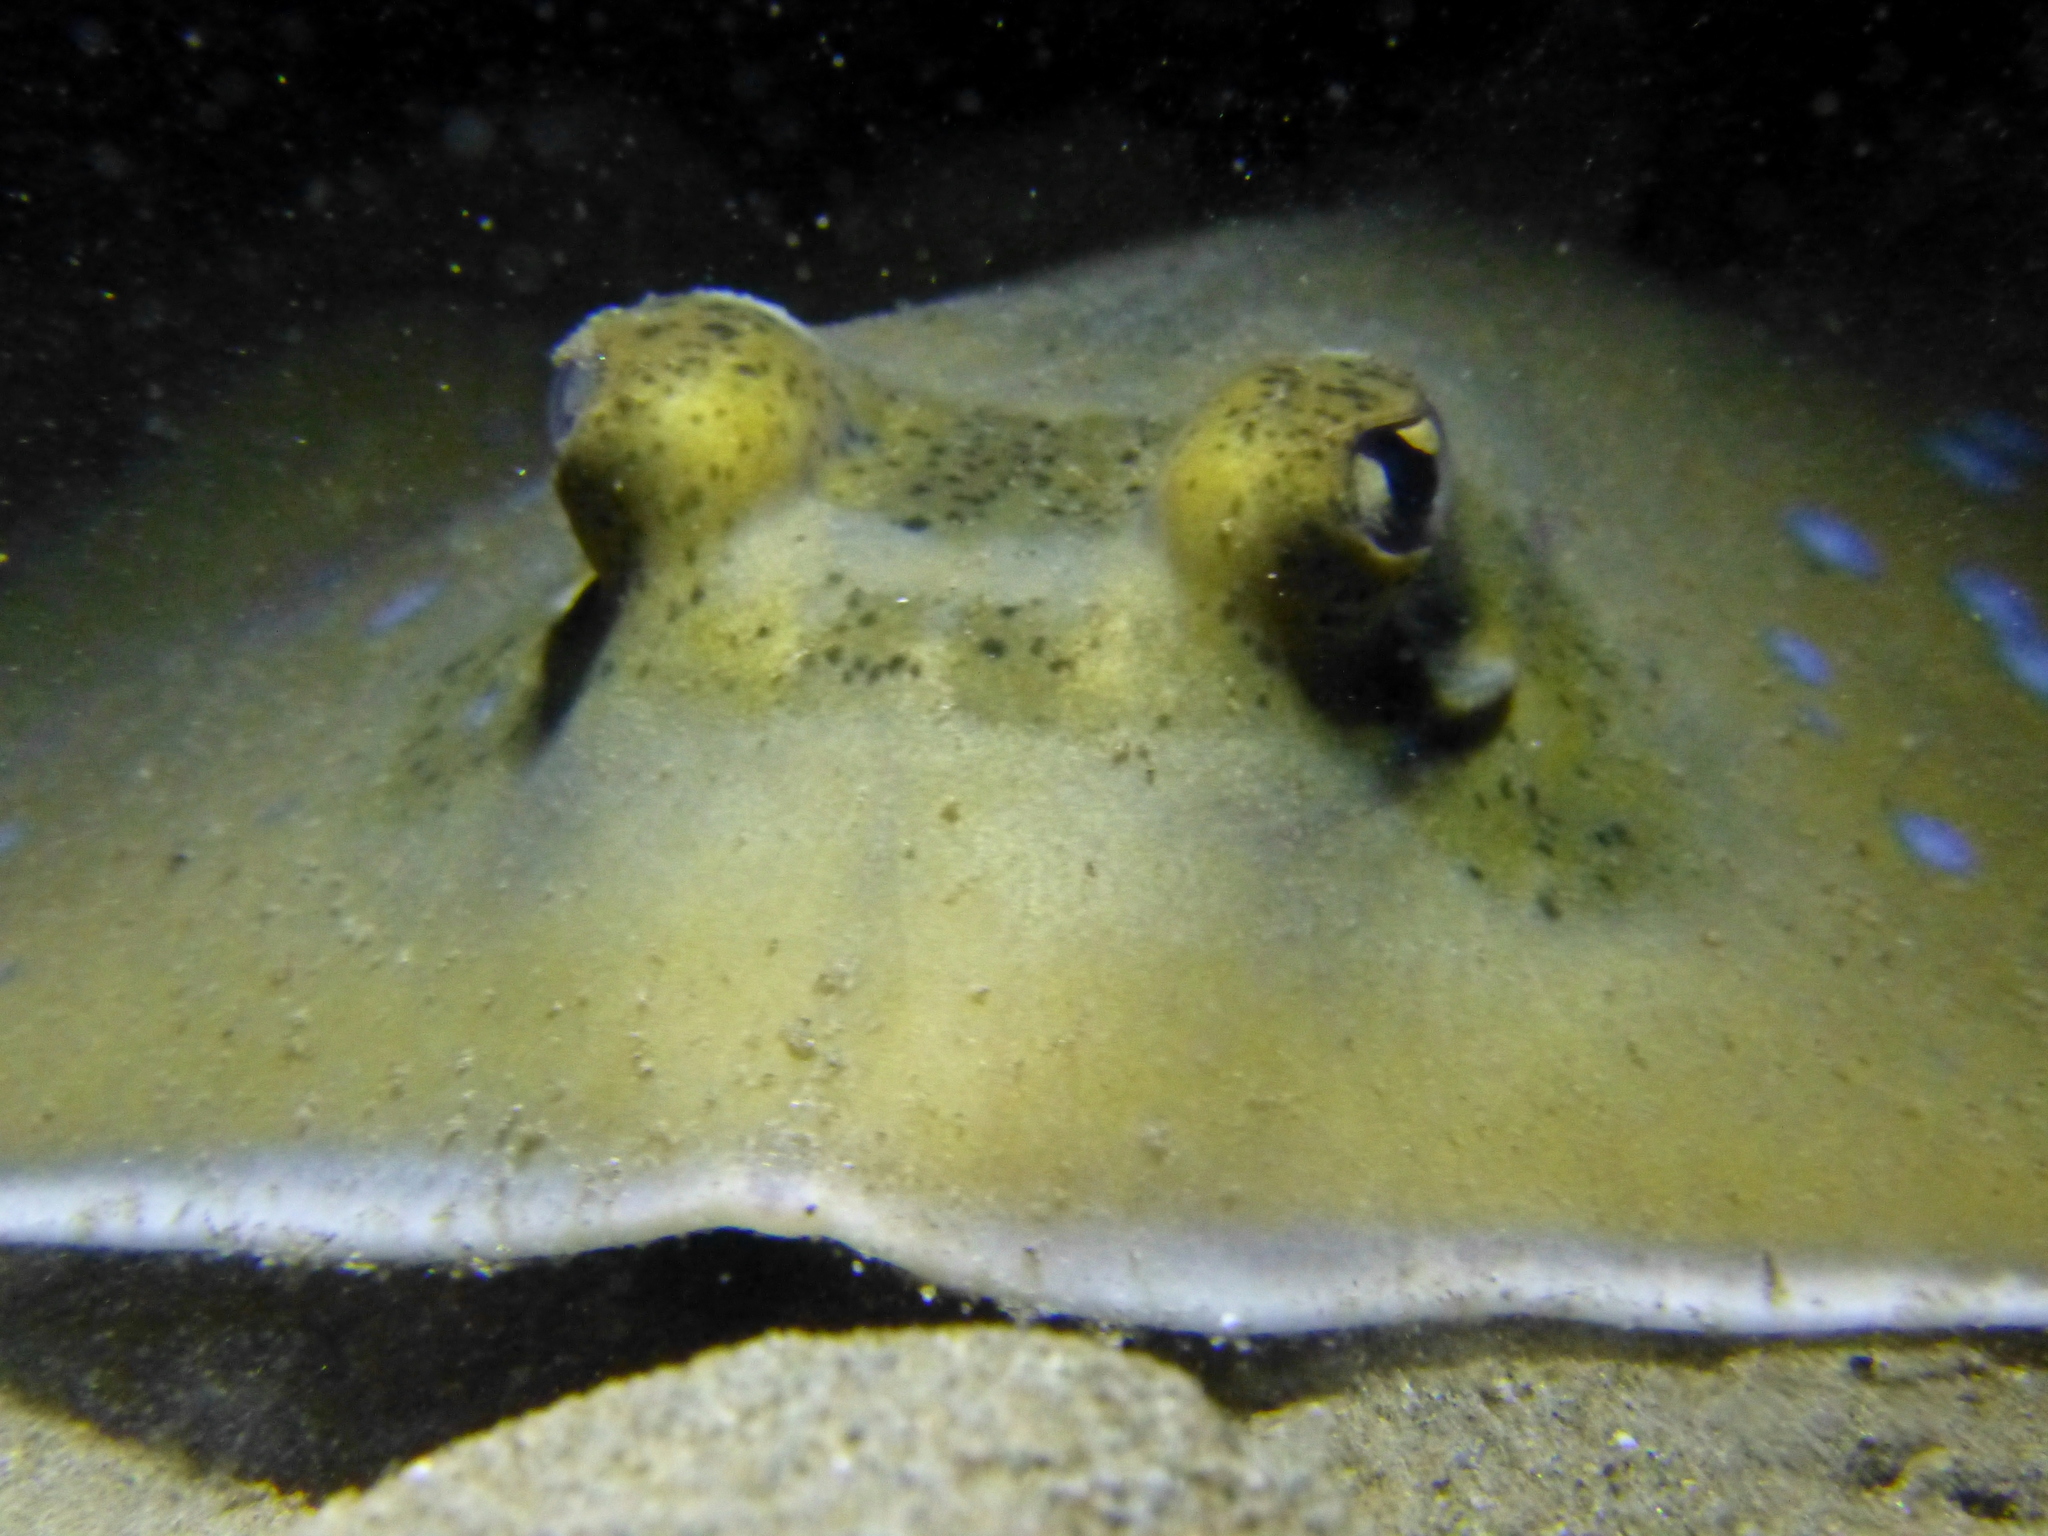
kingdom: Animalia
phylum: Chordata
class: Elasmobranchii
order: Myliobatiformes
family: Dasyatidae
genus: Neotrygon
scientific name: Neotrygon orientale
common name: Oriental bluespotted maskray
